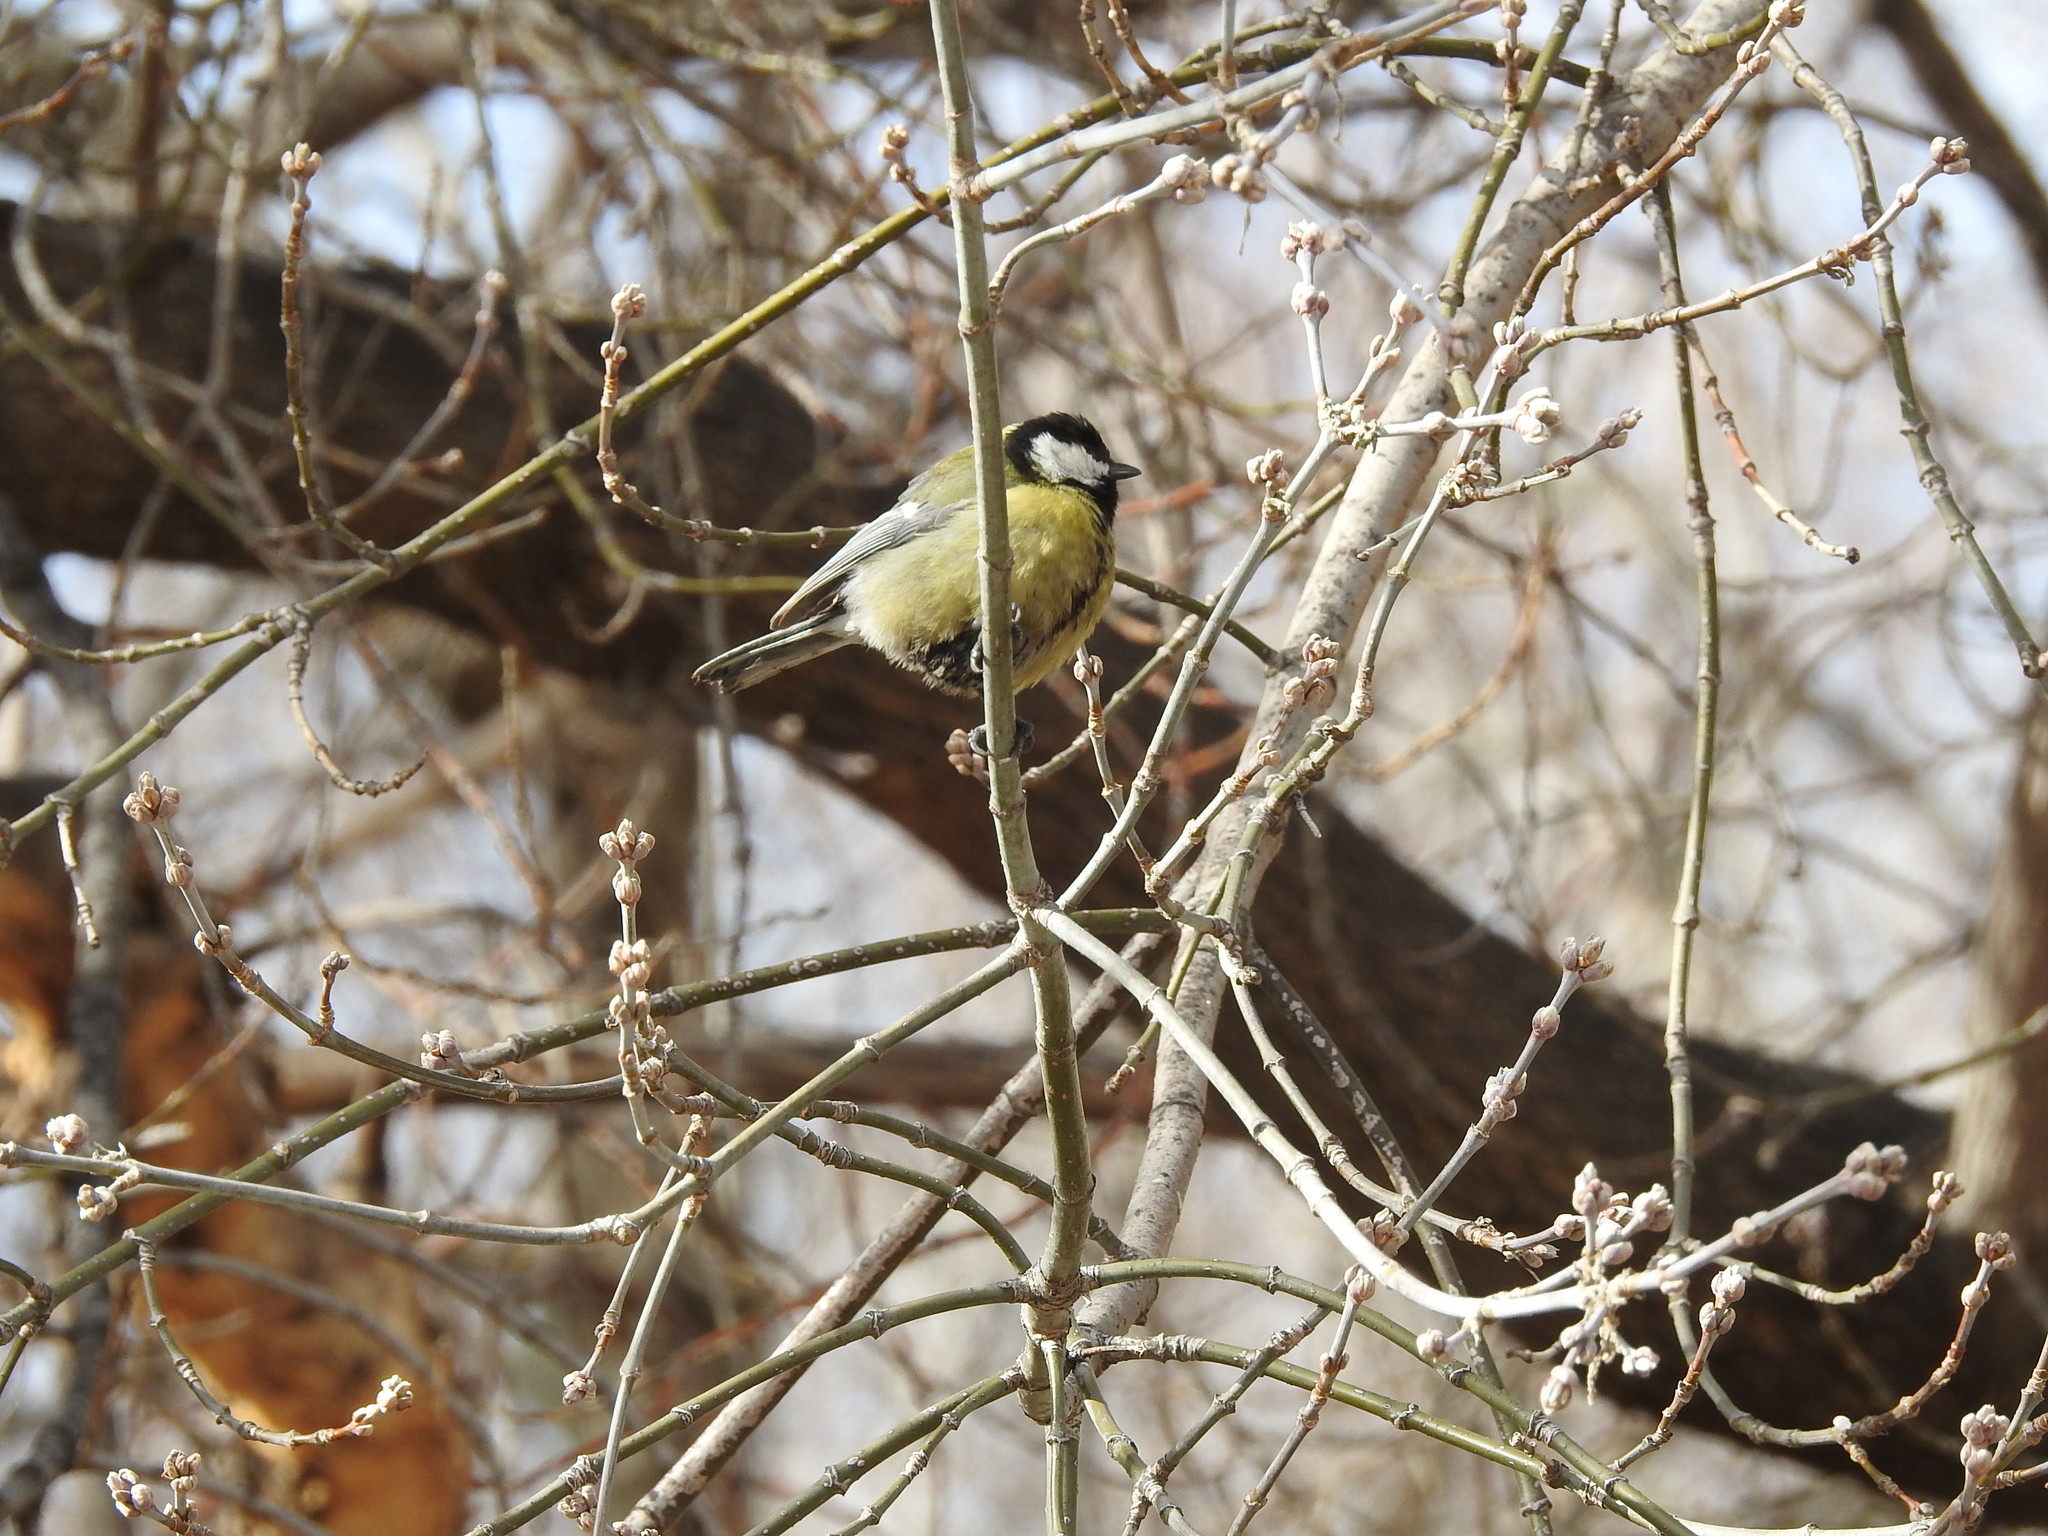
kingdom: Animalia
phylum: Chordata
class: Aves
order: Passeriformes
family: Paridae
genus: Parus
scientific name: Parus major
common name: Great tit
